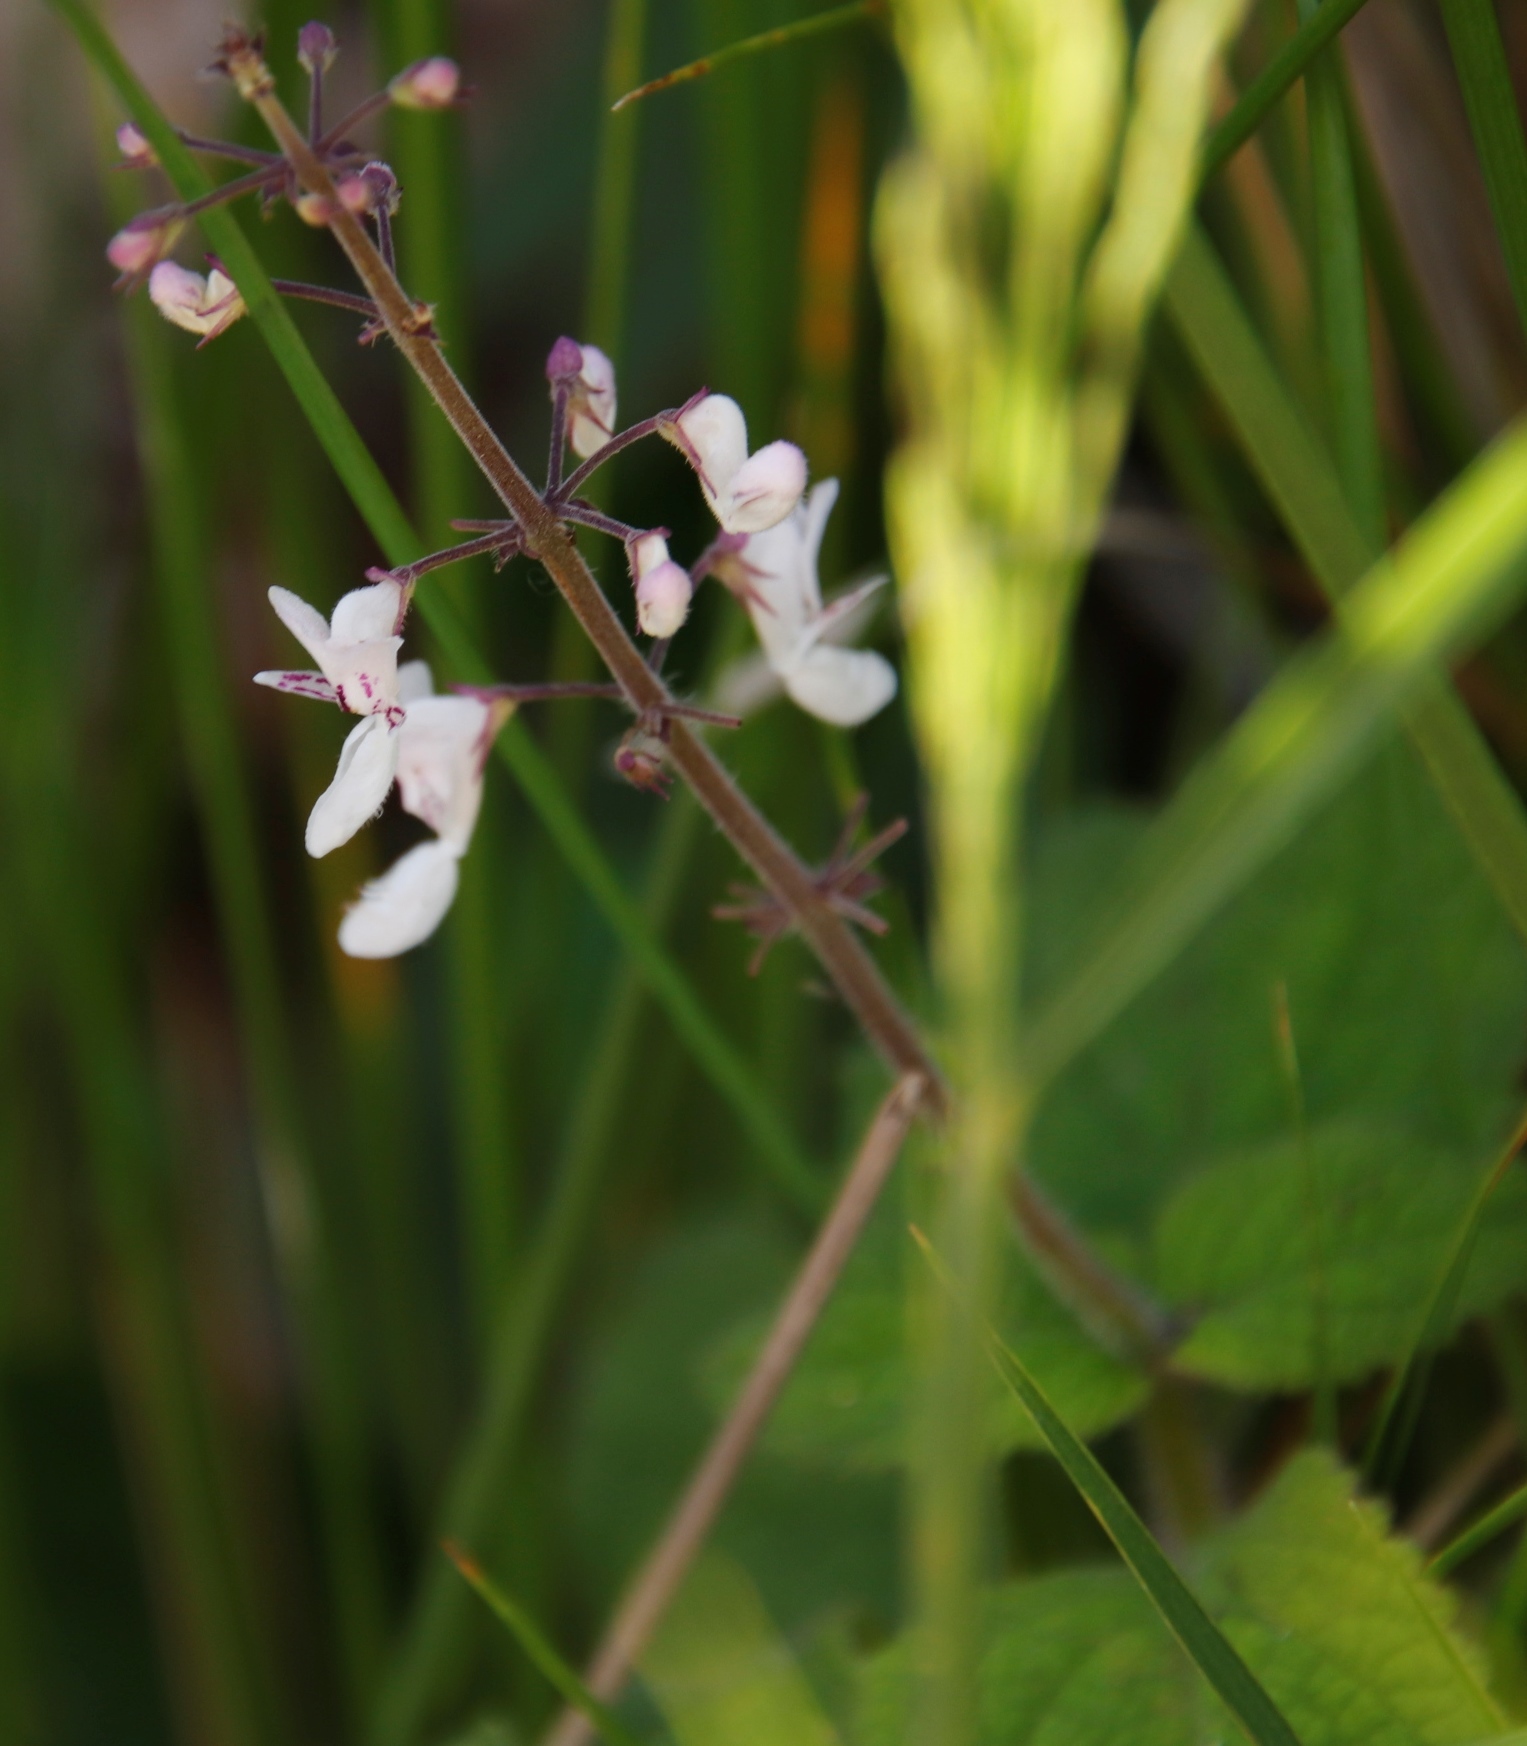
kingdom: Plantae
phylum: Tracheophyta
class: Magnoliopsida
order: Lamiales
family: Lamiaceae
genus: Plectranthus
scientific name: Plectranthus grallatus
